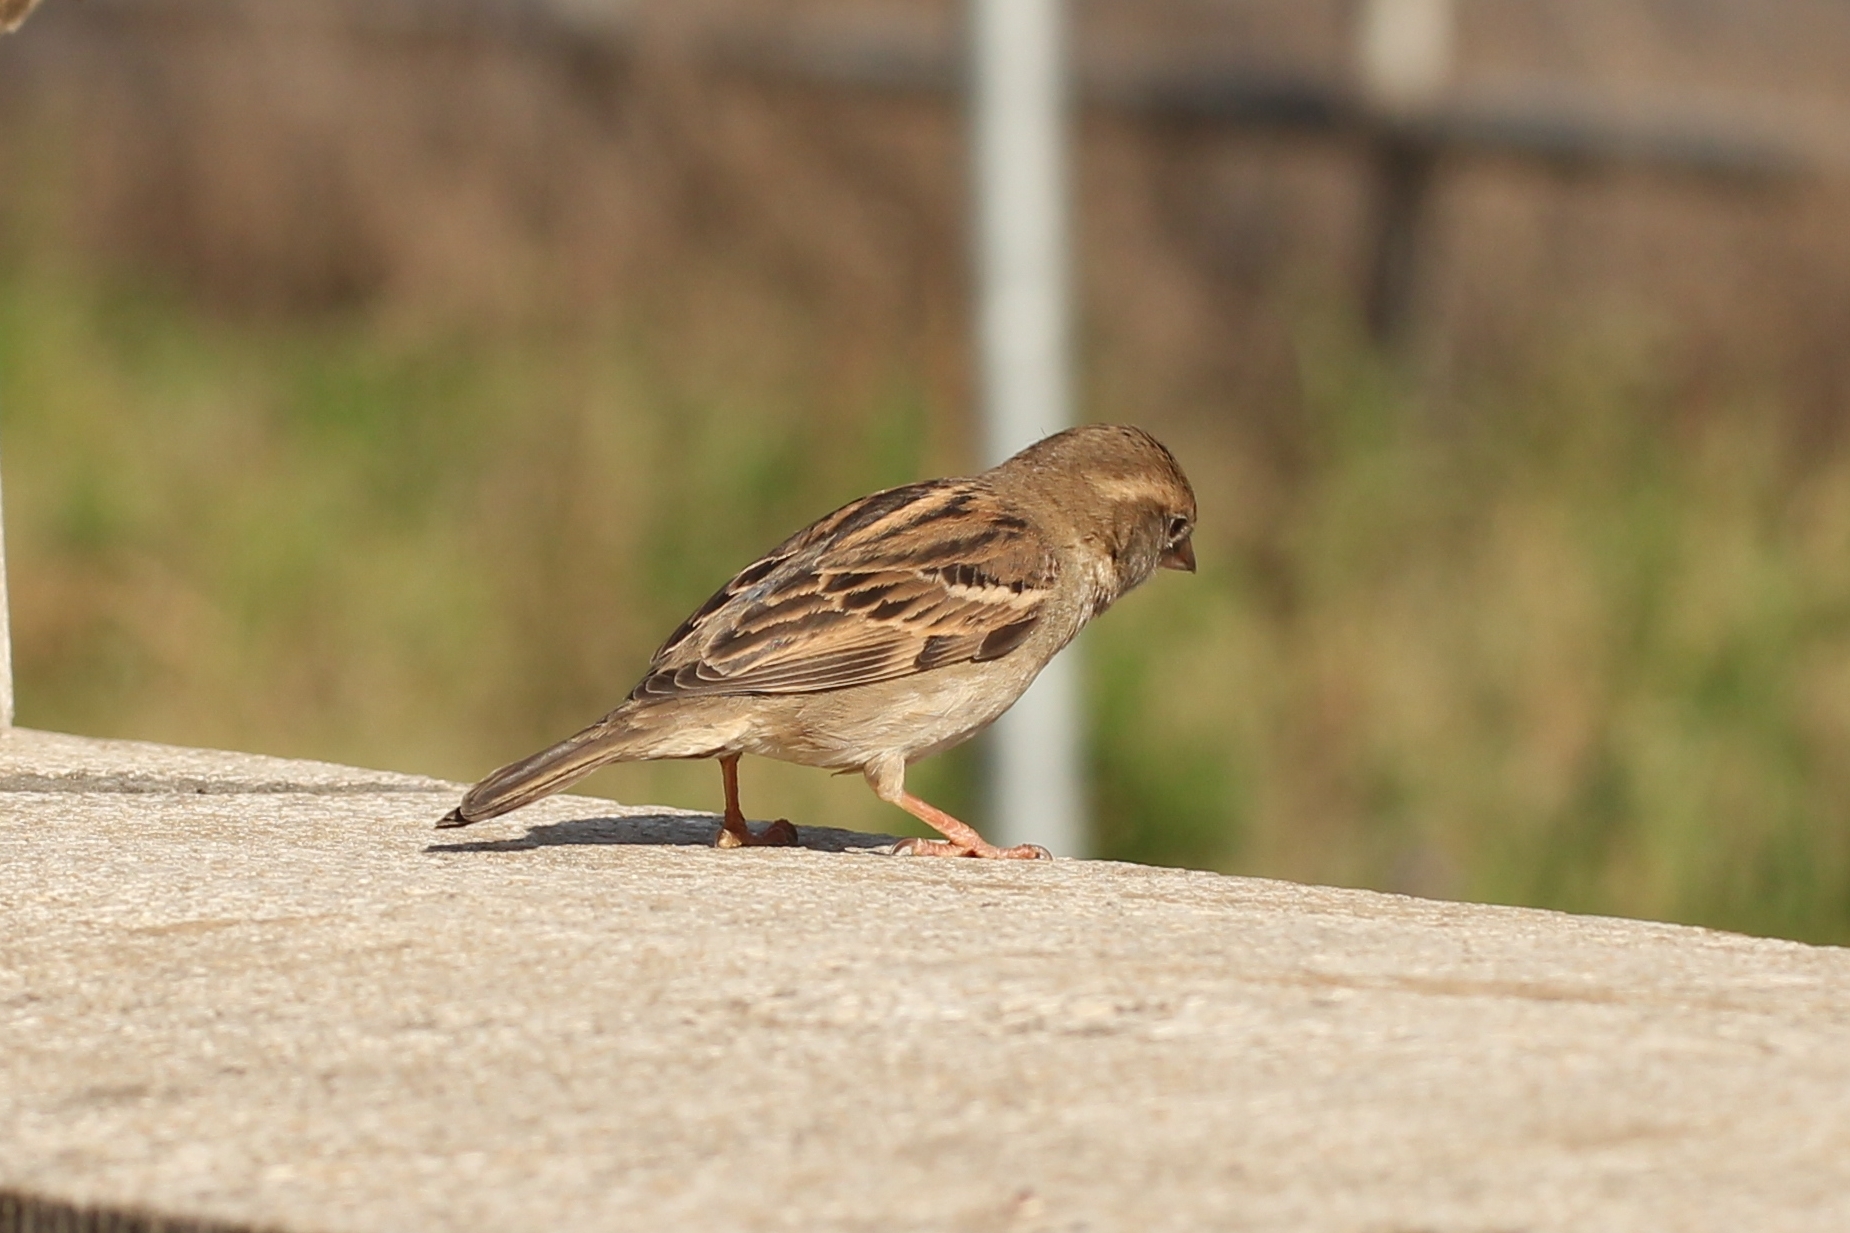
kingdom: Animalia
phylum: Chordata
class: Aves
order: Passeriformes
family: Passeridae
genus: Passer
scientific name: Passer domesticus
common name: House sparrow
